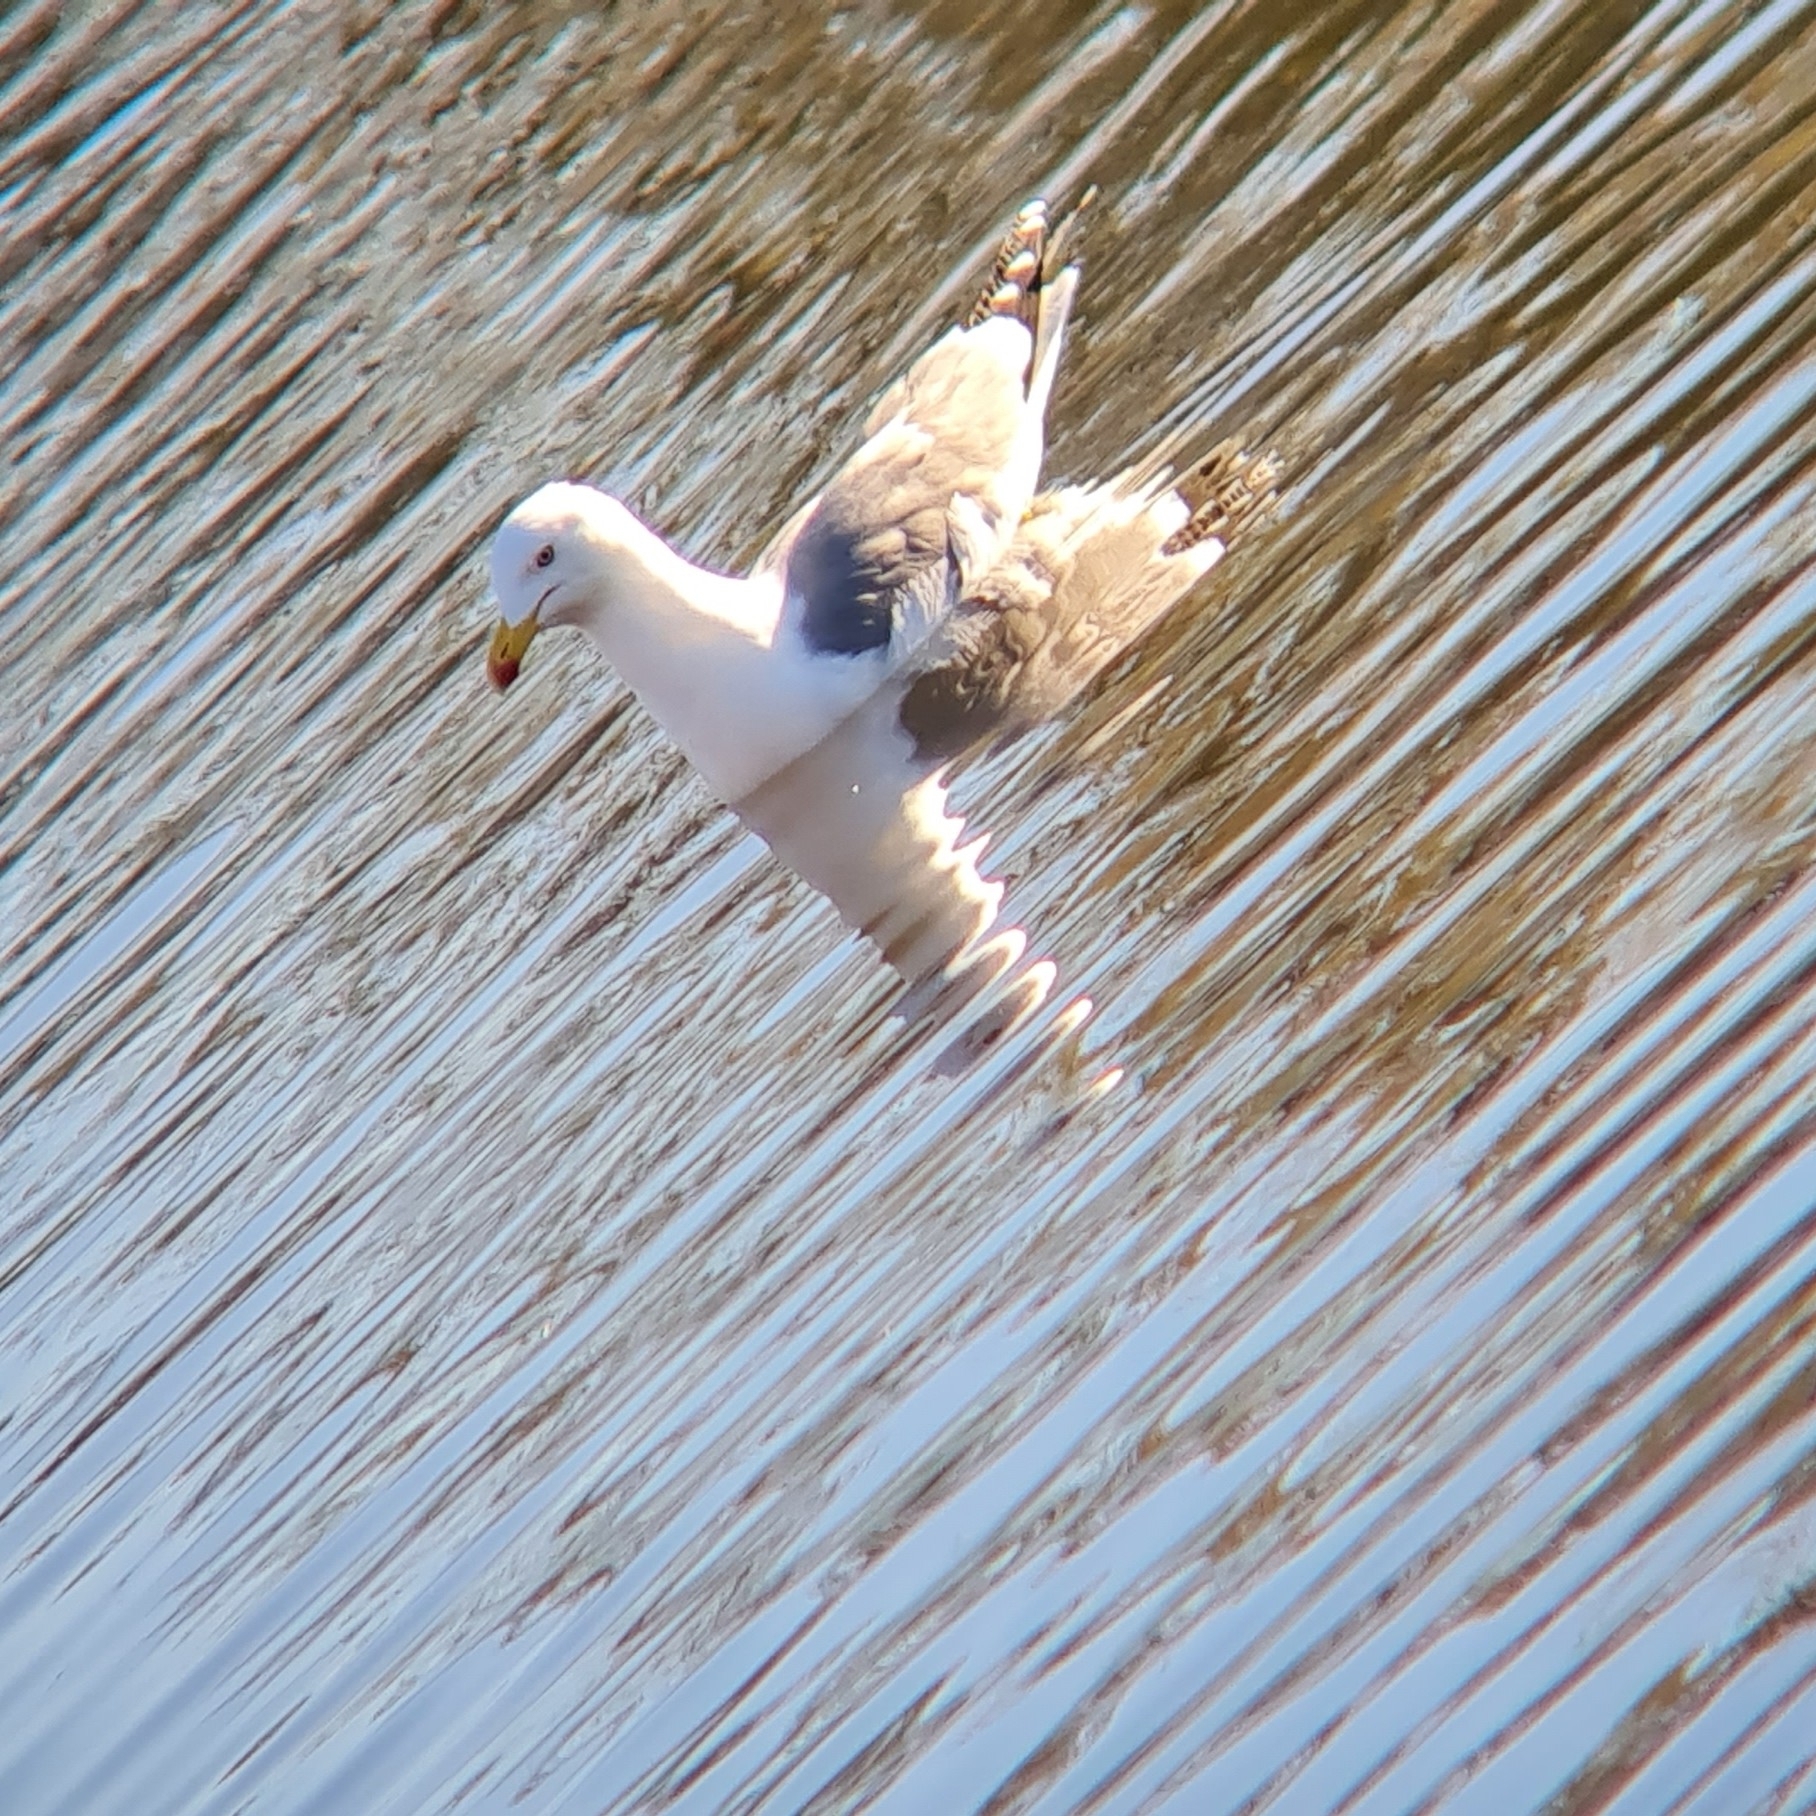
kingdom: Animalia
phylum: Chordata
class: Aves
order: Charadriiformes
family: Laridae
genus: Larus
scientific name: Larus michahellis
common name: Yellow-legged gull
